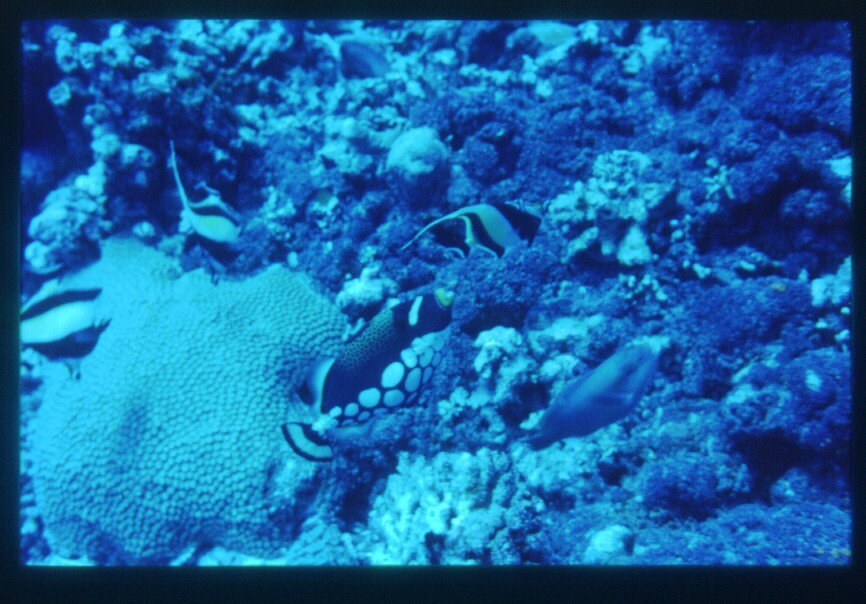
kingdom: Animalia
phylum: Chordata
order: Tetraodontiformes
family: Balistidae
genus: Balistoides
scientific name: Balistoides conspicillum
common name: Clown triggerfish
